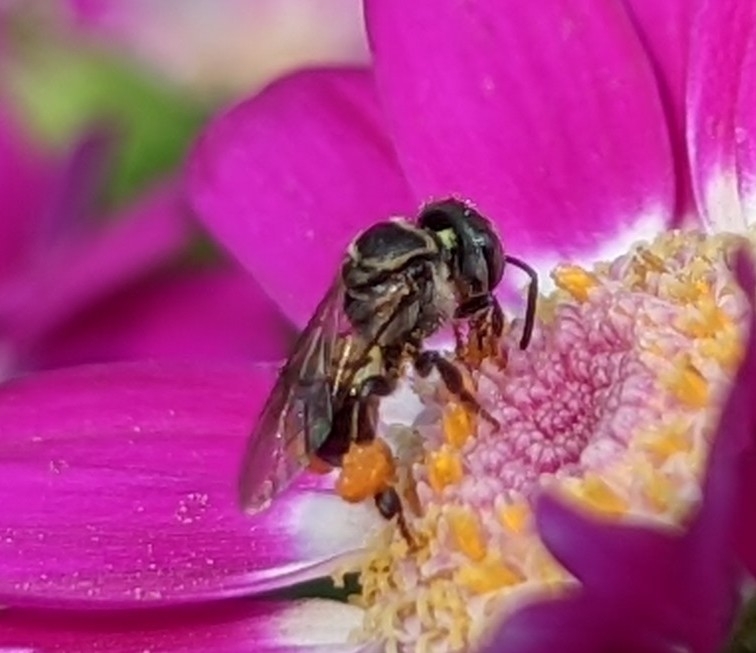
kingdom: Animalia
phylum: Arthropoda
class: Insecta
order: Hymenoptera
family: Apidae
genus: Lepidotrigona
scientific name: Lepidotrigona arcifera
